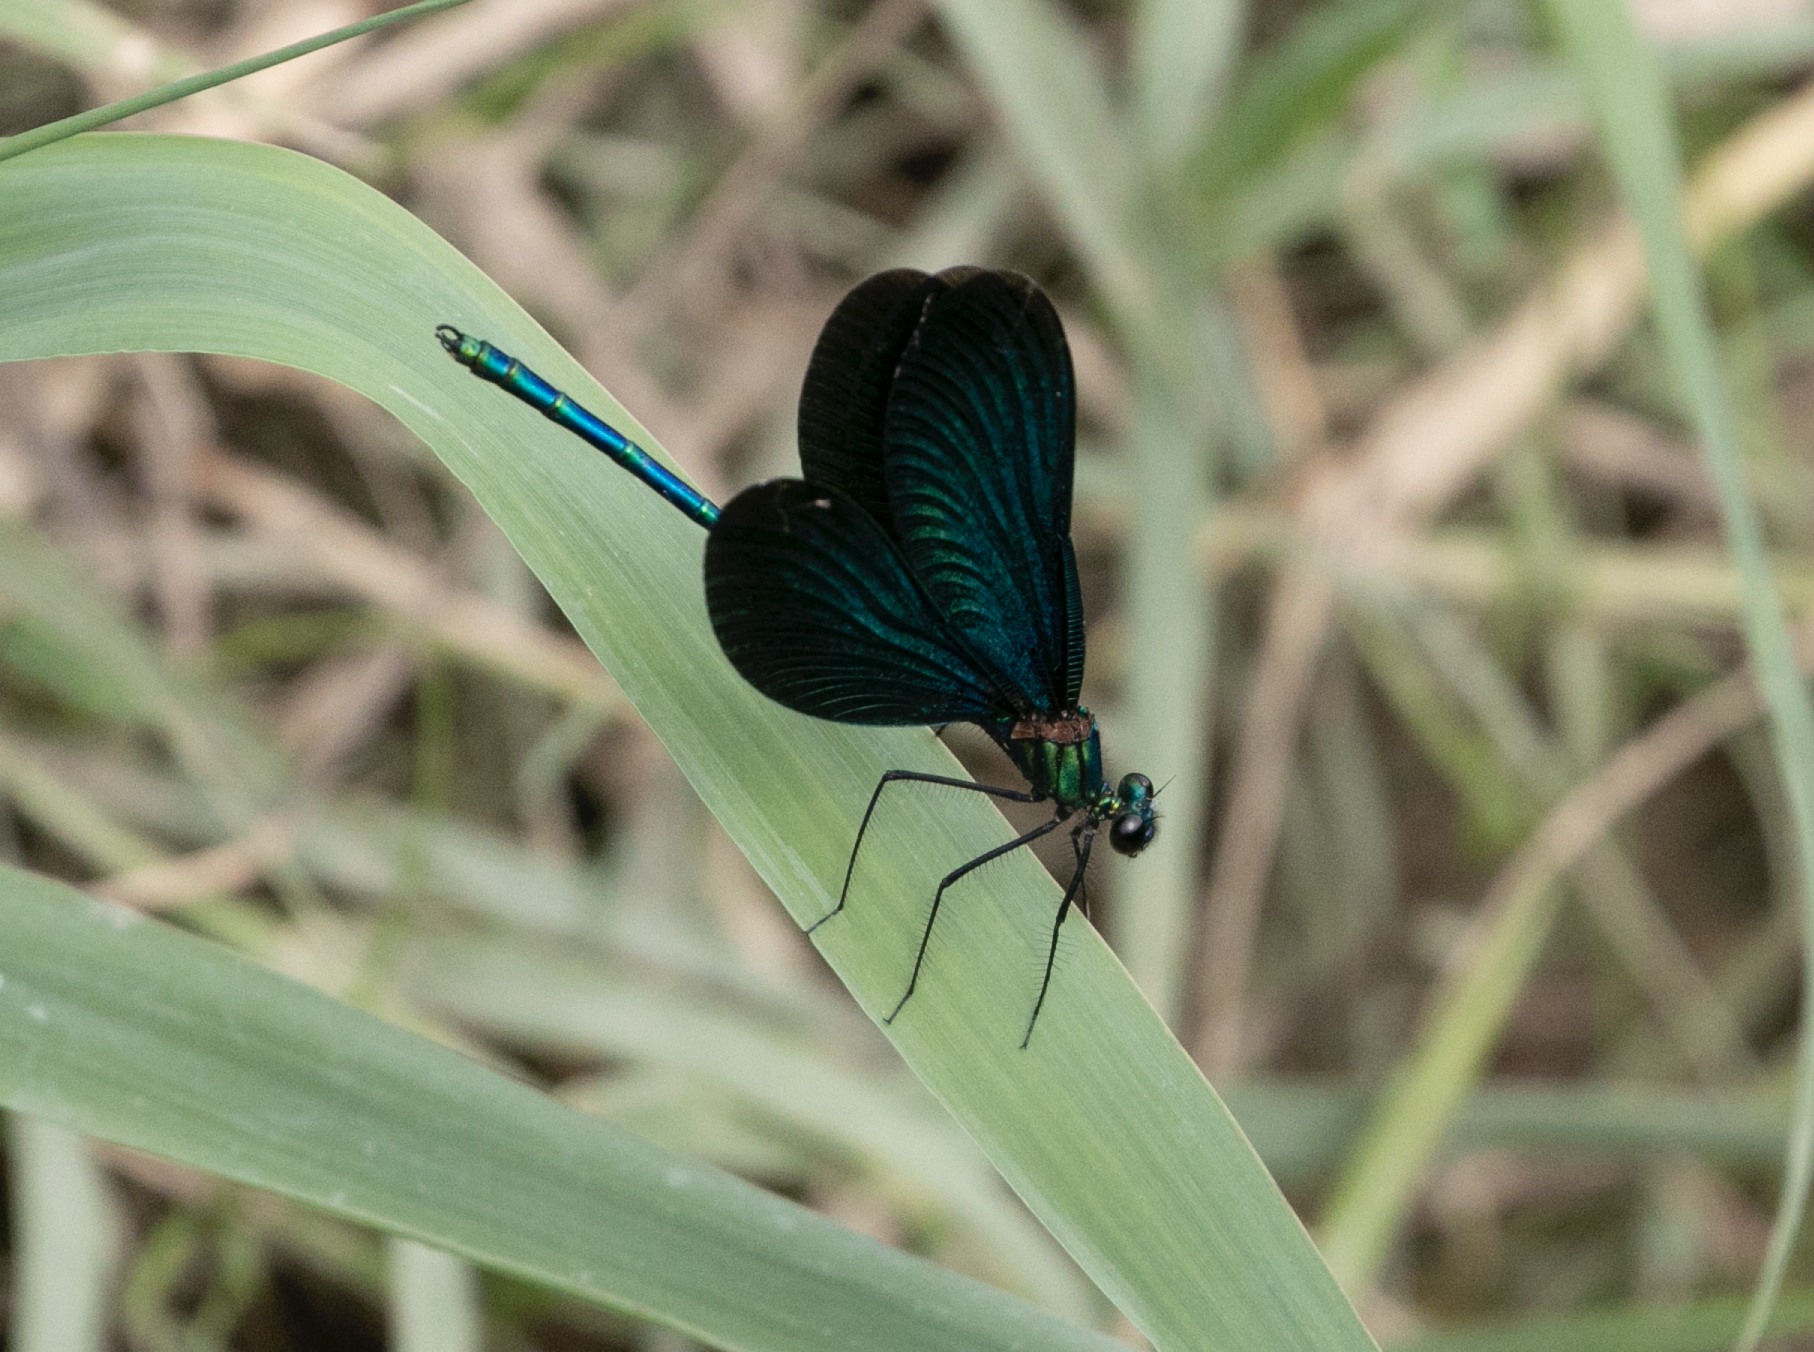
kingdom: Animalia
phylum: Arthropoda
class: Insecta
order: Odonata
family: Calopterygidae
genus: Calopteryx
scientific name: Calopteryx virgo
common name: Beautiful demoiselle
